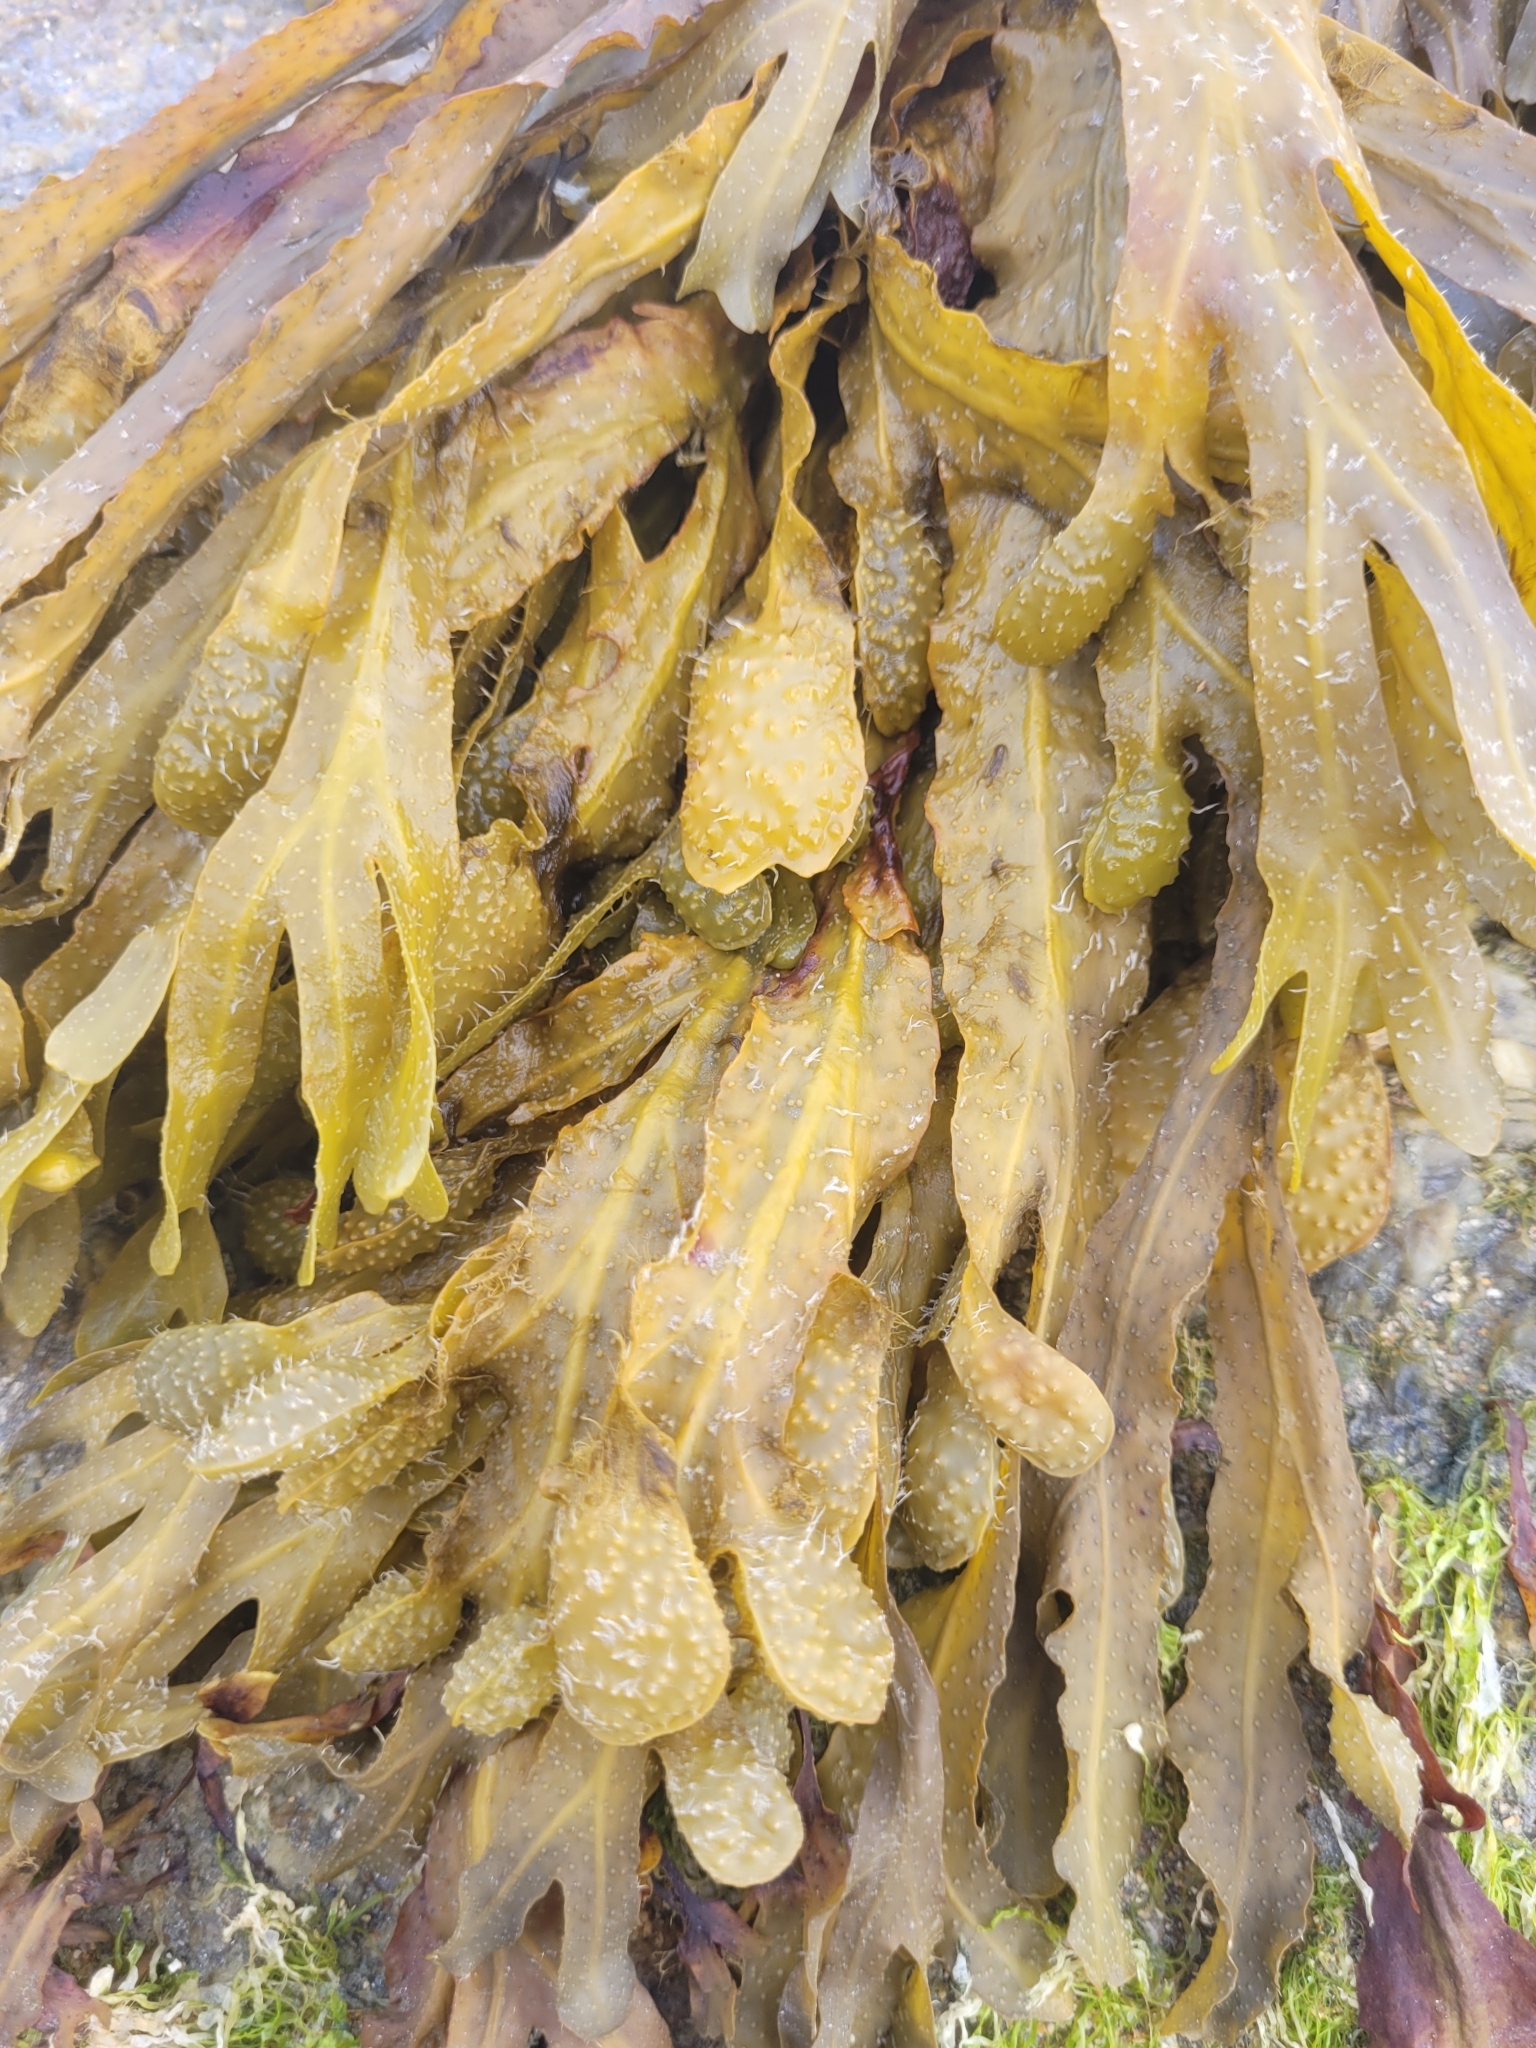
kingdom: Chromista
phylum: Ochrophyta
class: Phaeophyceae
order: Fucales
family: Fucaceae
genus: Fucus
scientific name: Fucus spiralis
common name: Spiral wrack
